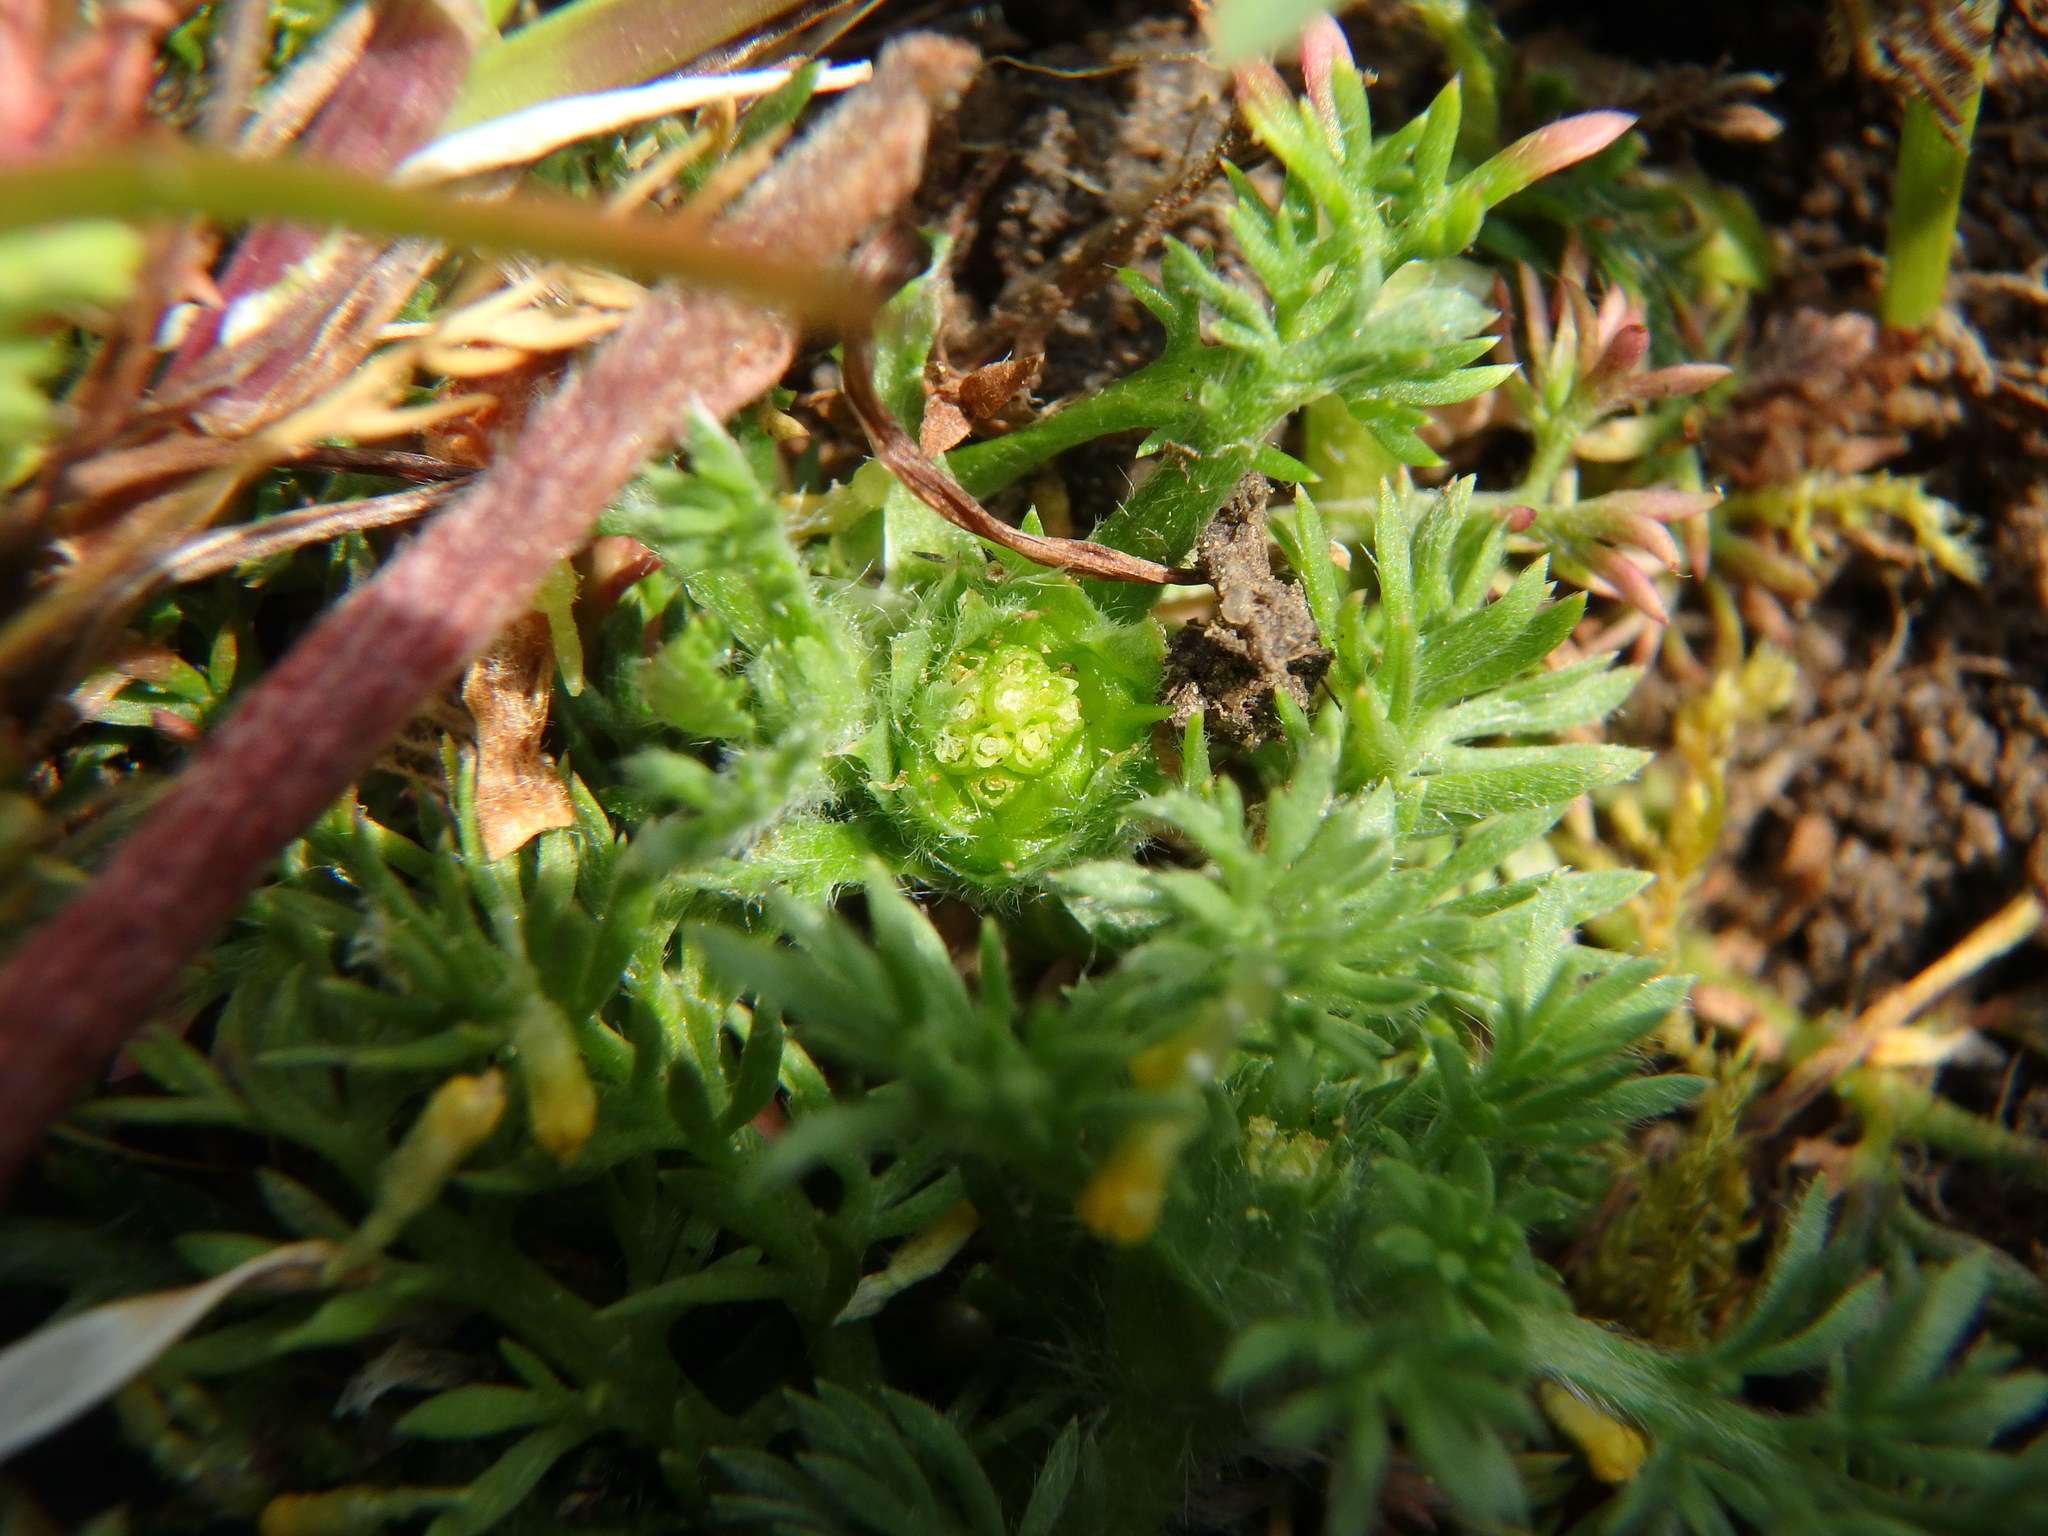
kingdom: Plantae
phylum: Tracheophyta
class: Magnoliopsida
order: Asterales
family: Asteraceae
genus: Soliva
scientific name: Soliva sessilis
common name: Field burrweed
